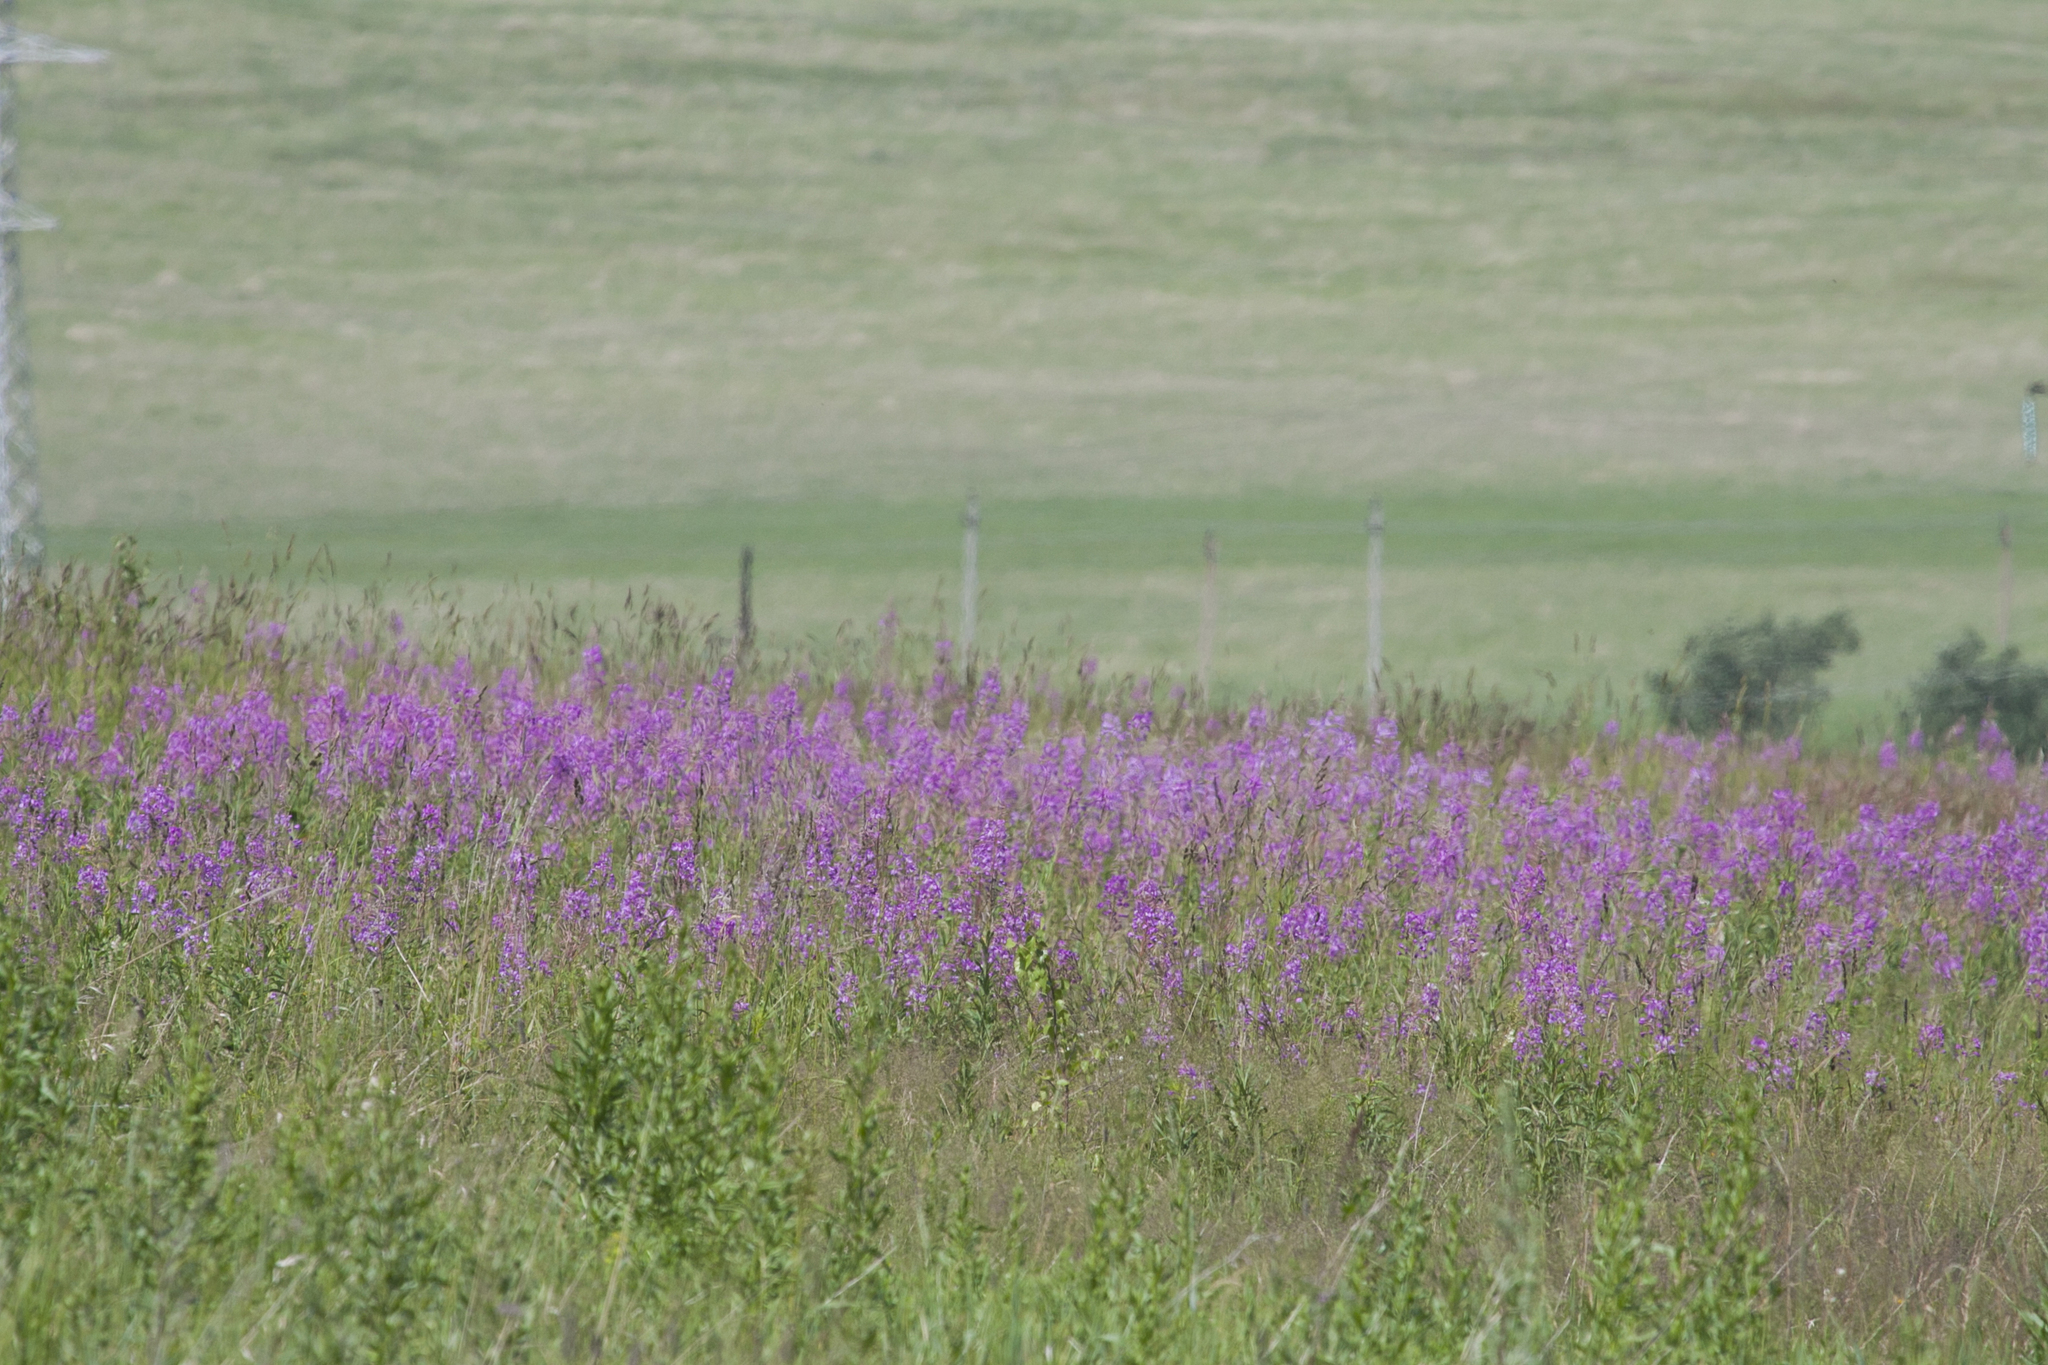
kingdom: Plantae
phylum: Tracheophyta
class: Magnoliopsida
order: Myrtales
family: Onagraceae
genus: Chamaenerion
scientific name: Chamaenerion angustifolium
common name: Fireweed
